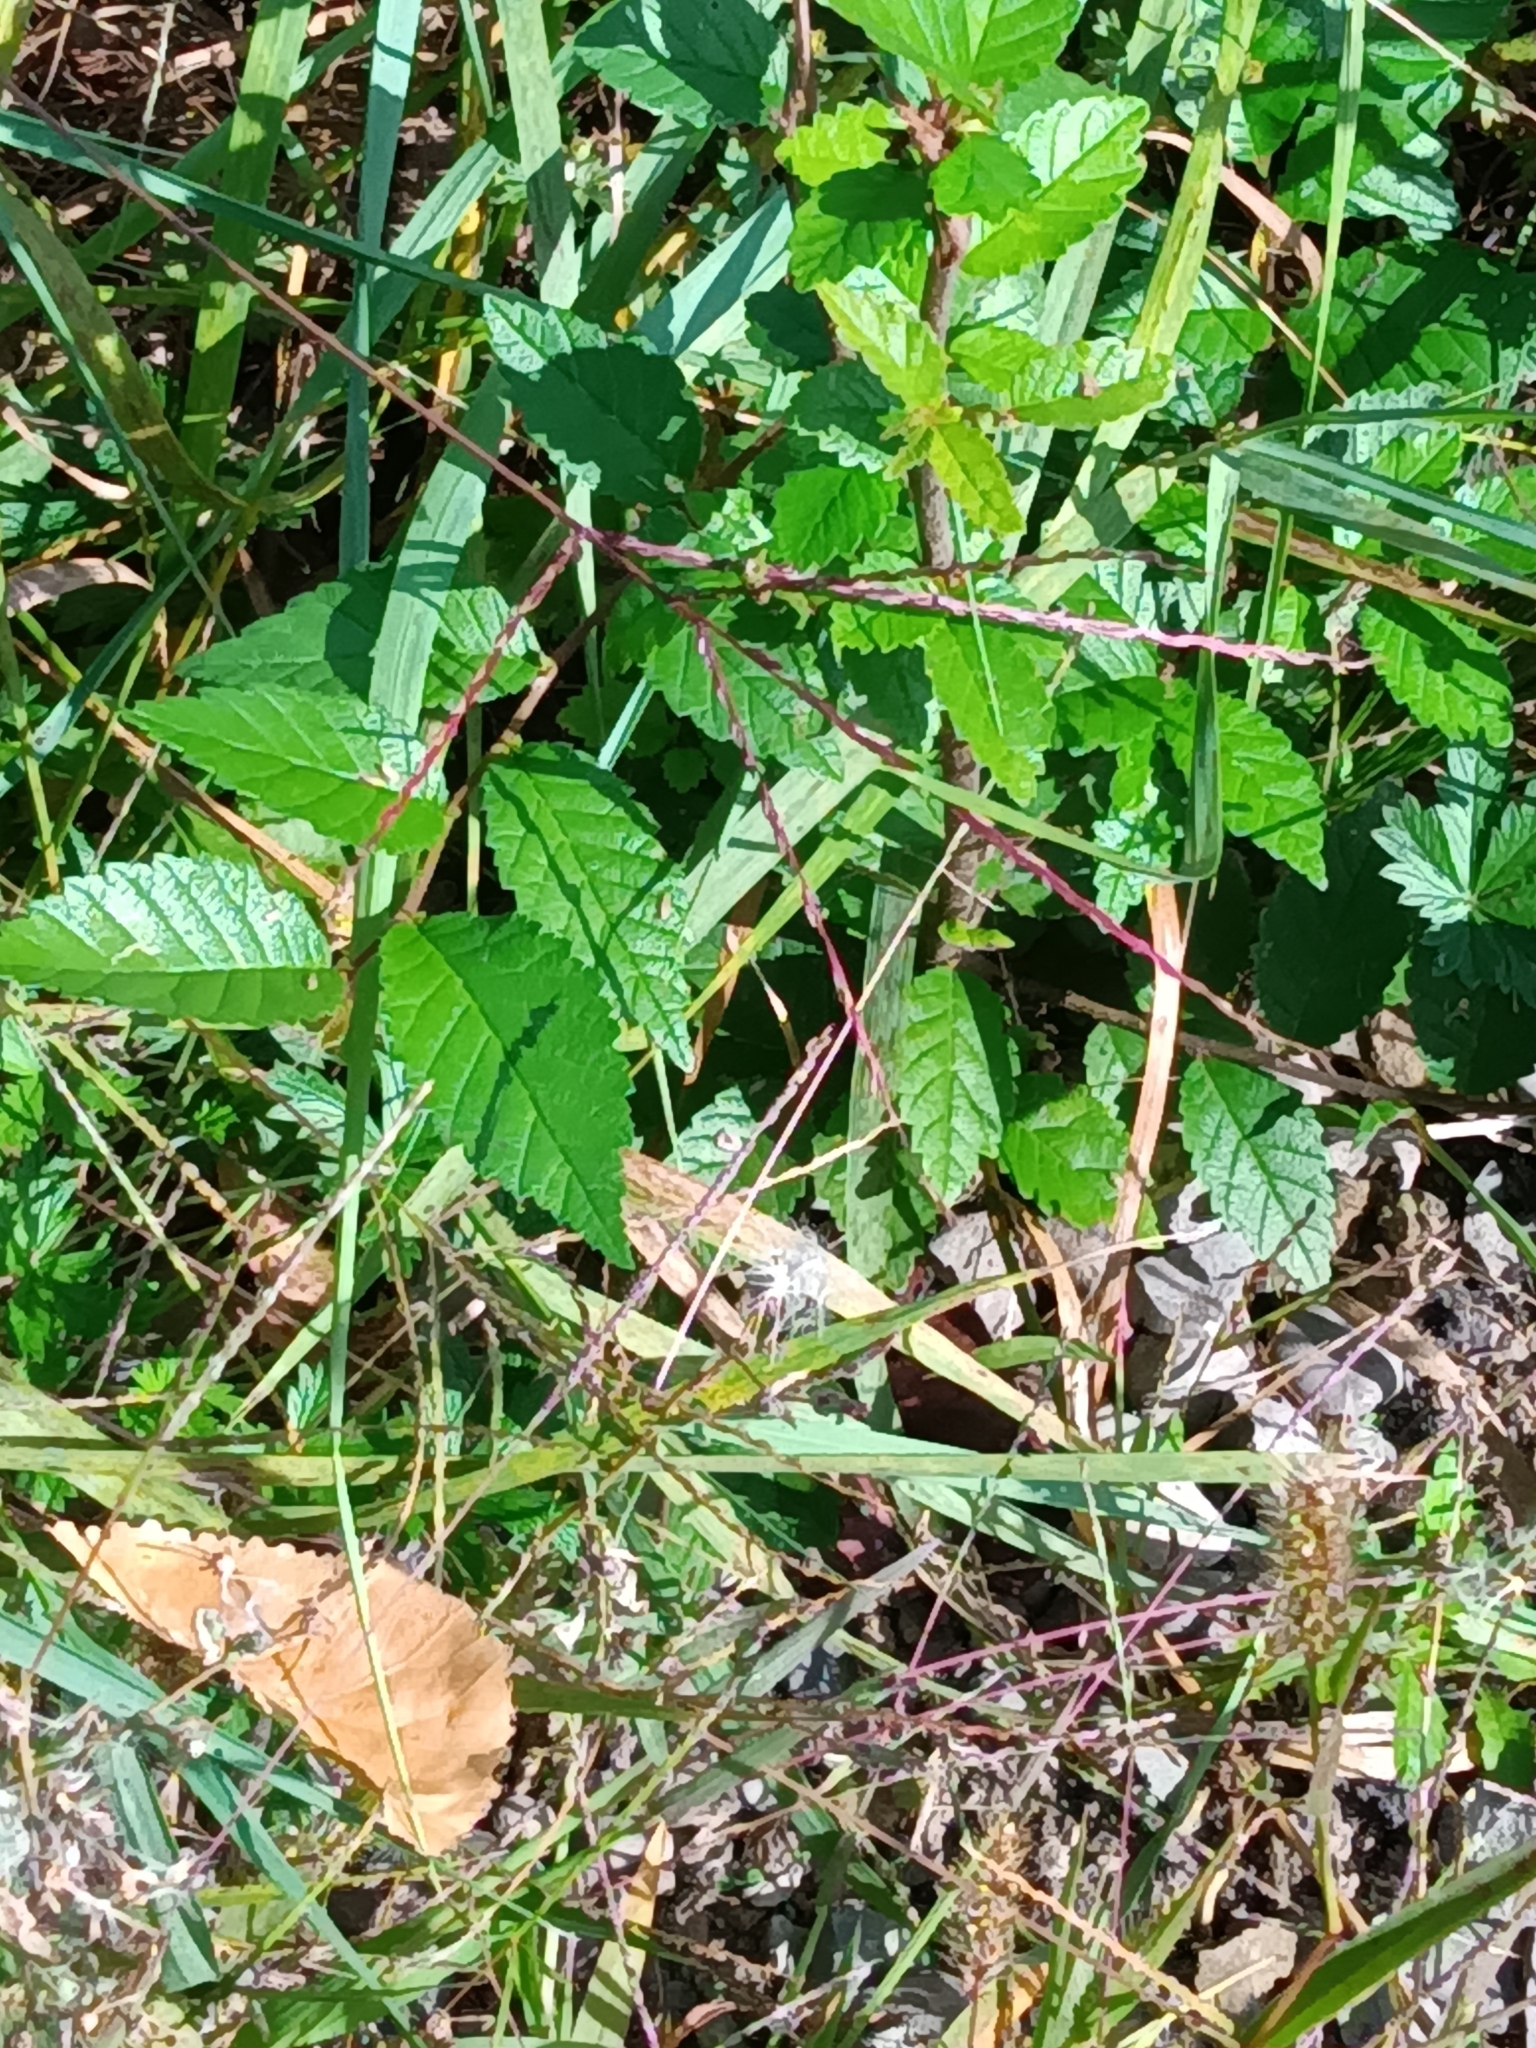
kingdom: Plantae
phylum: Tracheophyta
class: Magnoliopsida
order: Rosales
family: Ulmaceae
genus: Ulmus
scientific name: Ulmus pumila
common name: Siberian elm
